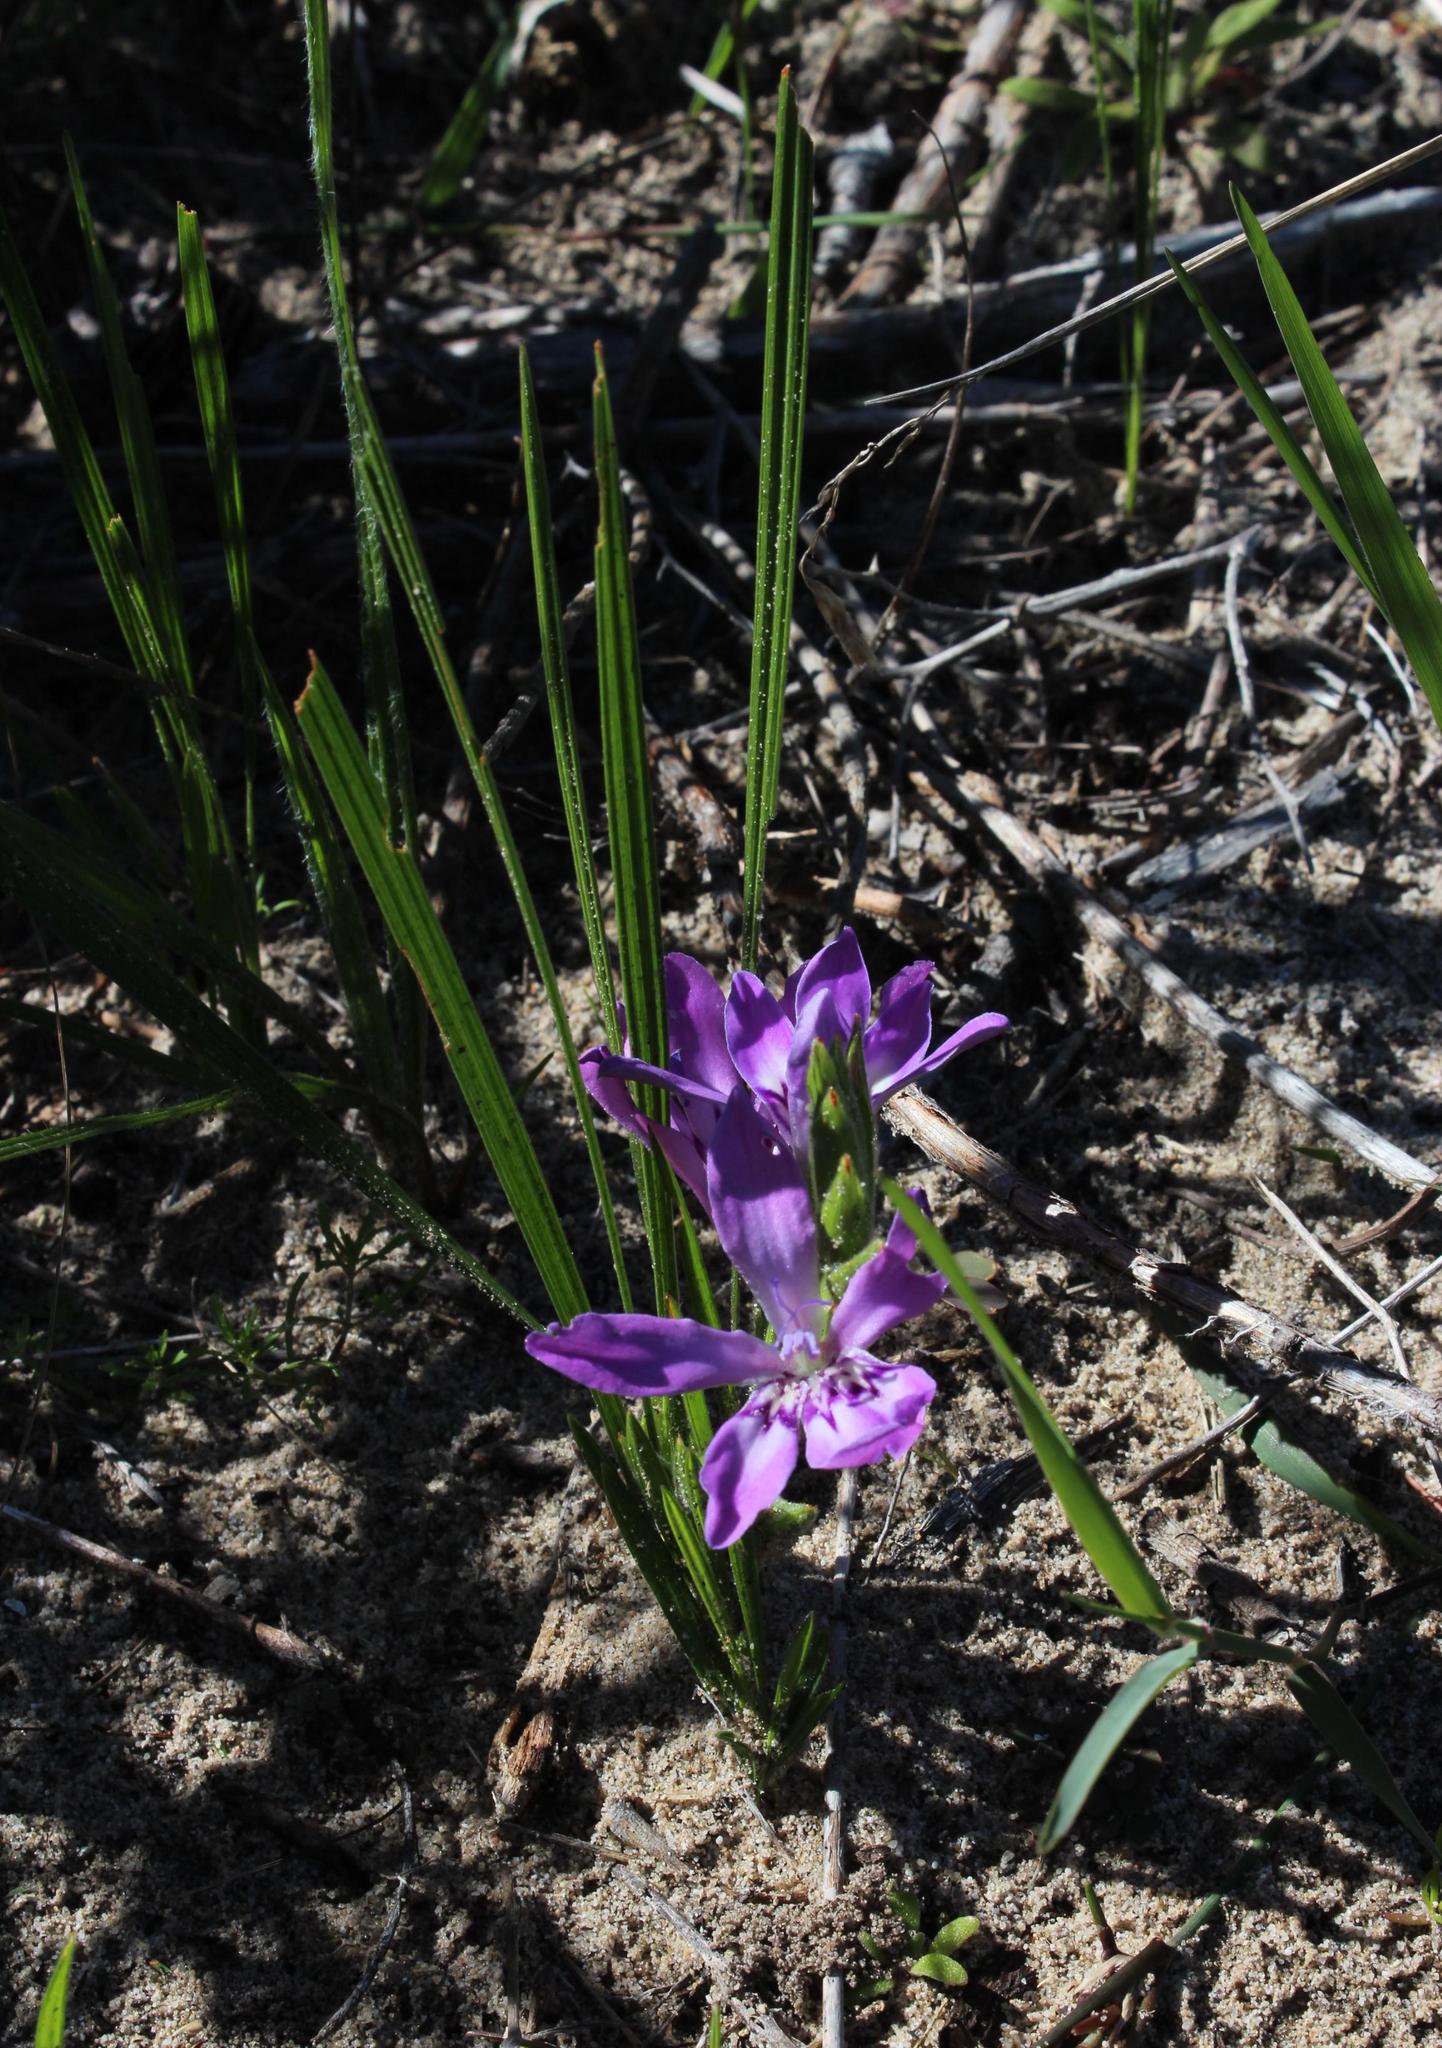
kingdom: Plantae
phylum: Tracheophyta
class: Liliopsida
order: Asparagales
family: Iridaceae
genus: Babiana
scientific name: Babiana ambigua
